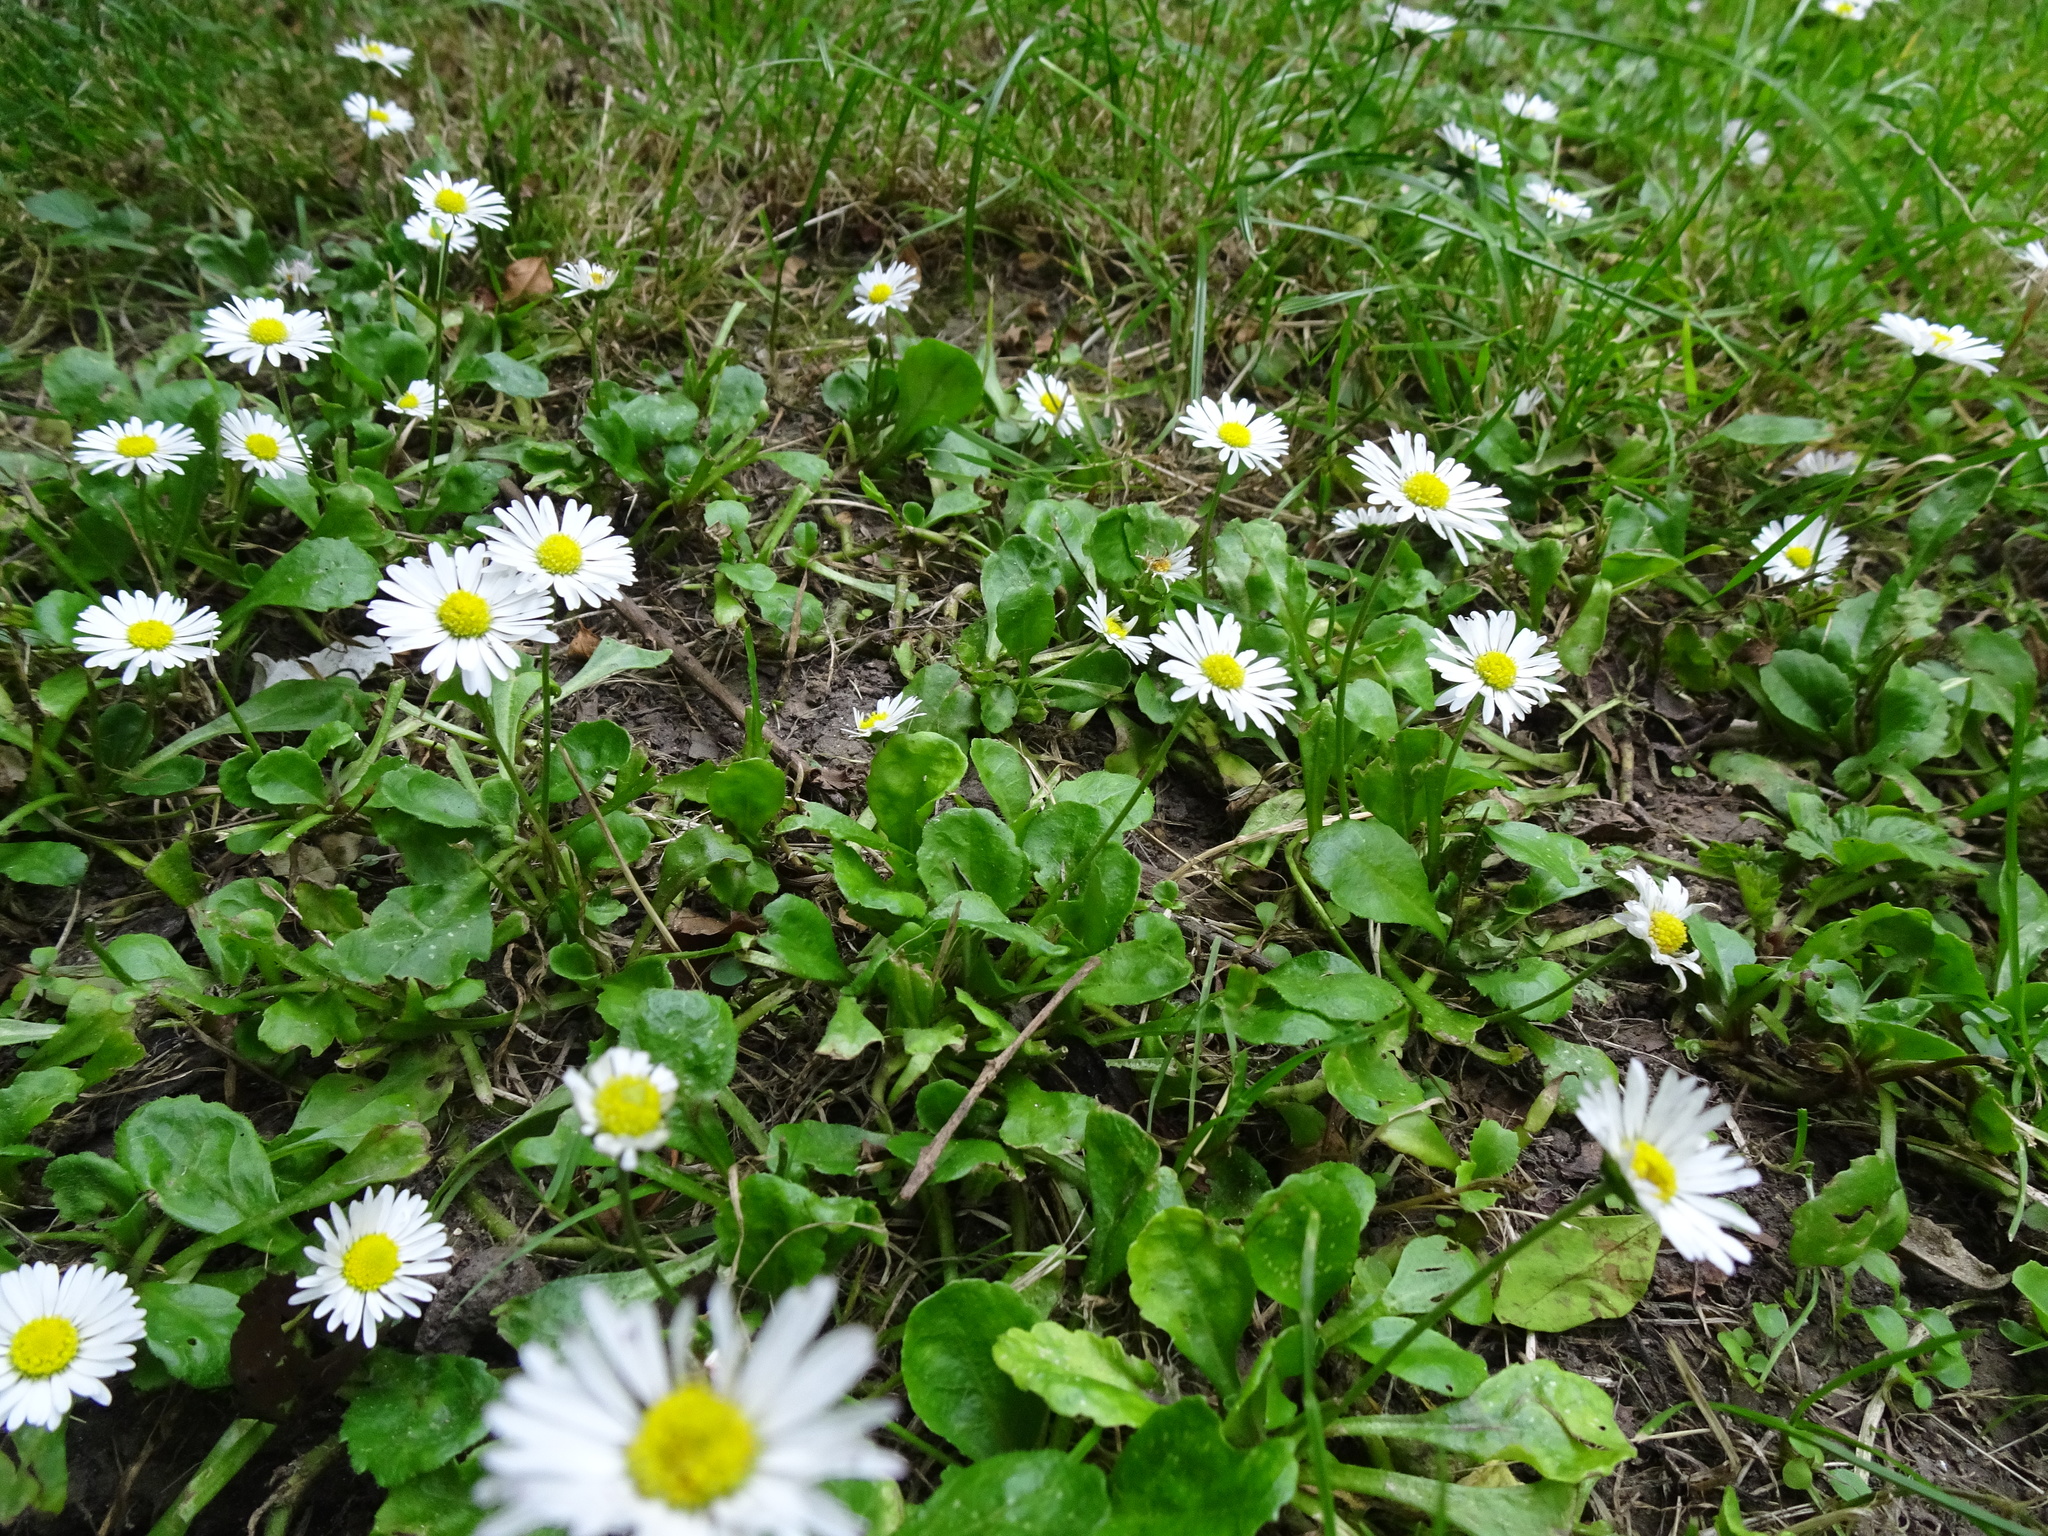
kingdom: Plantae
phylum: Tracheophyta
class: Magnoliopsida
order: Asterales
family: Asteraceae
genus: Bellis
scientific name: Bellis perennis
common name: Lawndaisy
